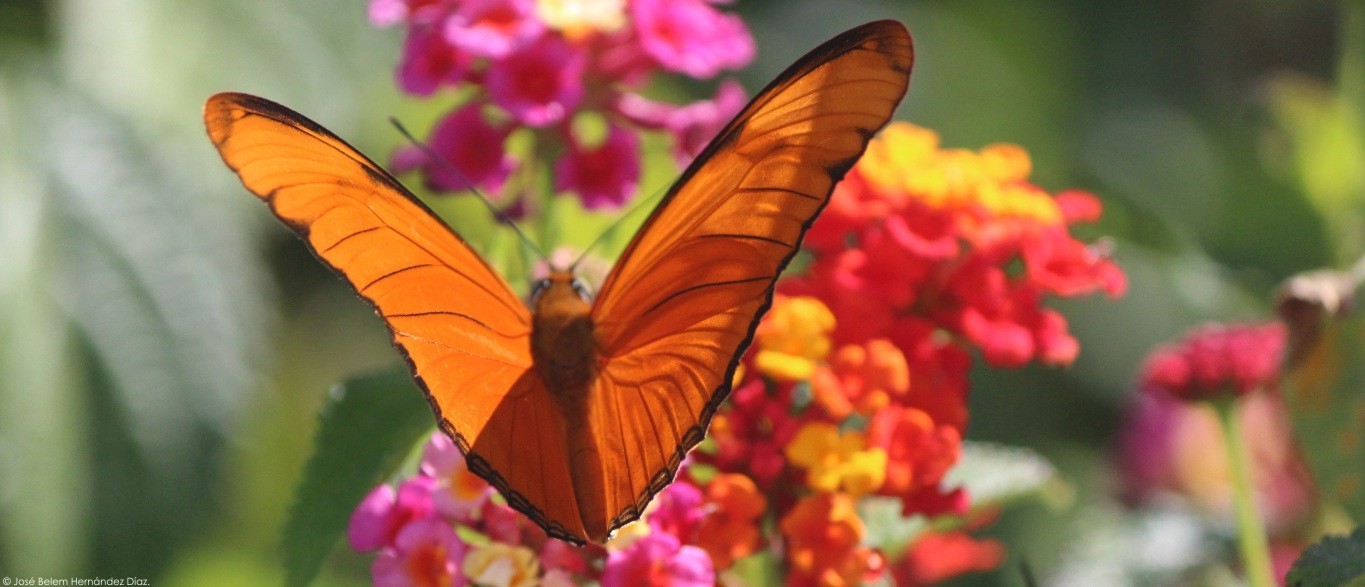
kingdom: Animalia
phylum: Arthropoda
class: Insecta
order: Lepidoptera
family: Nymphalidae
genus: Dryas
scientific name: Dryas iulia
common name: Flambeau
